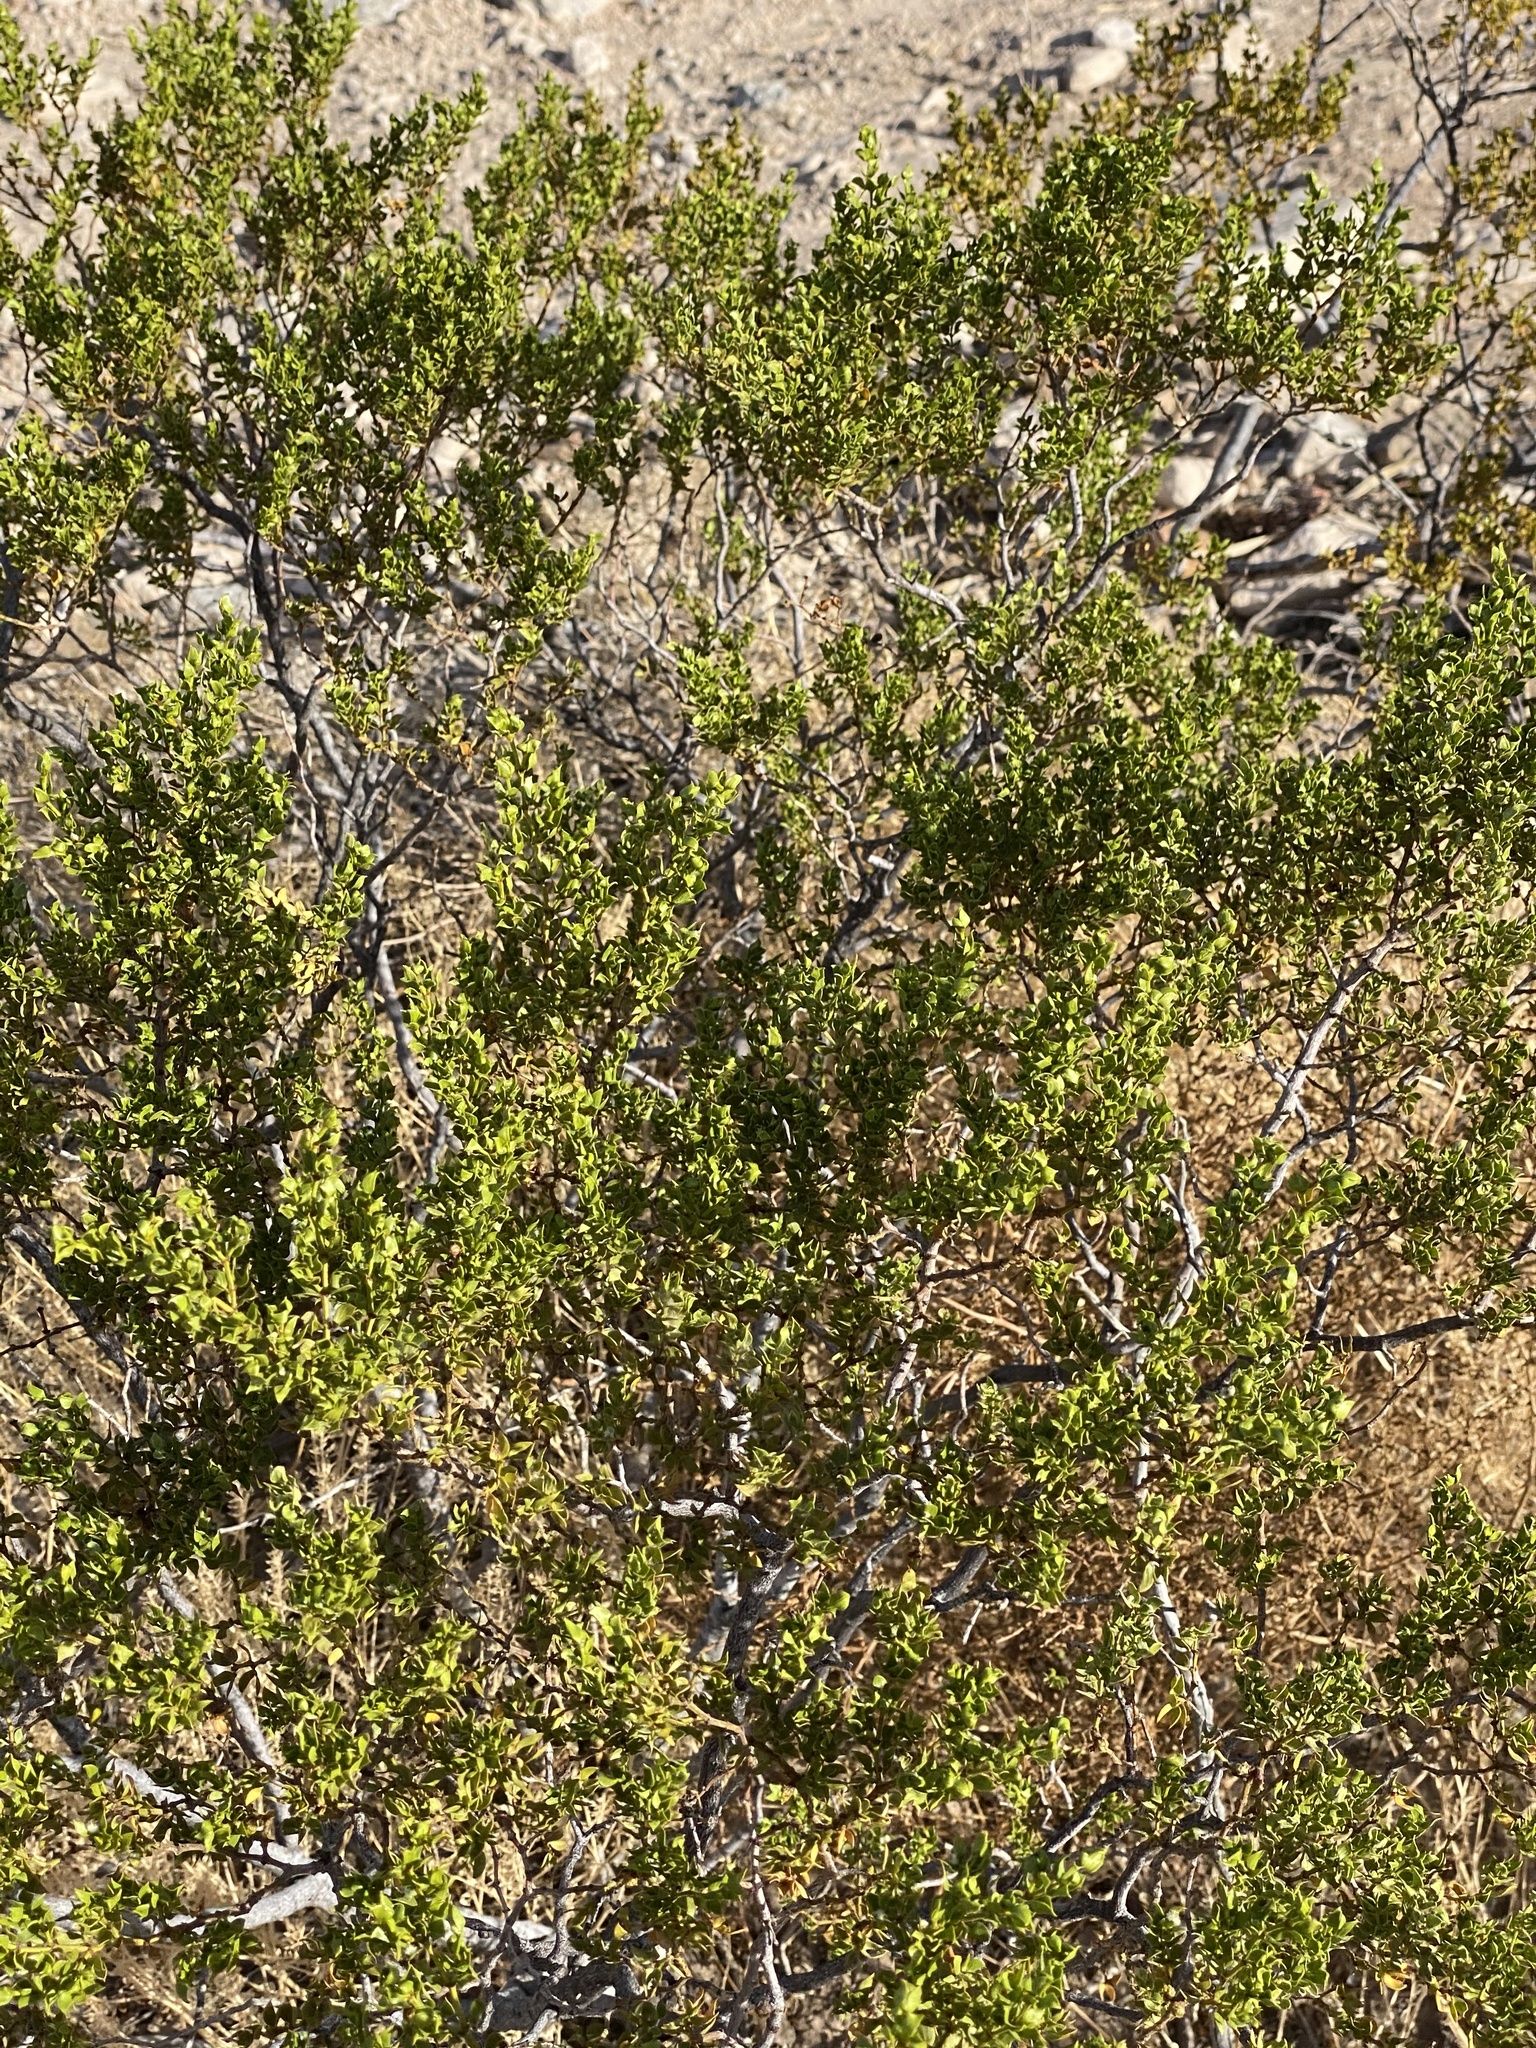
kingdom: Plantae
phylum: Tracheophyta
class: Magnoliopsida
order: Zygophyllales
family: Zygophyllaceae
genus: Larrea
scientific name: Larrea tridentata
